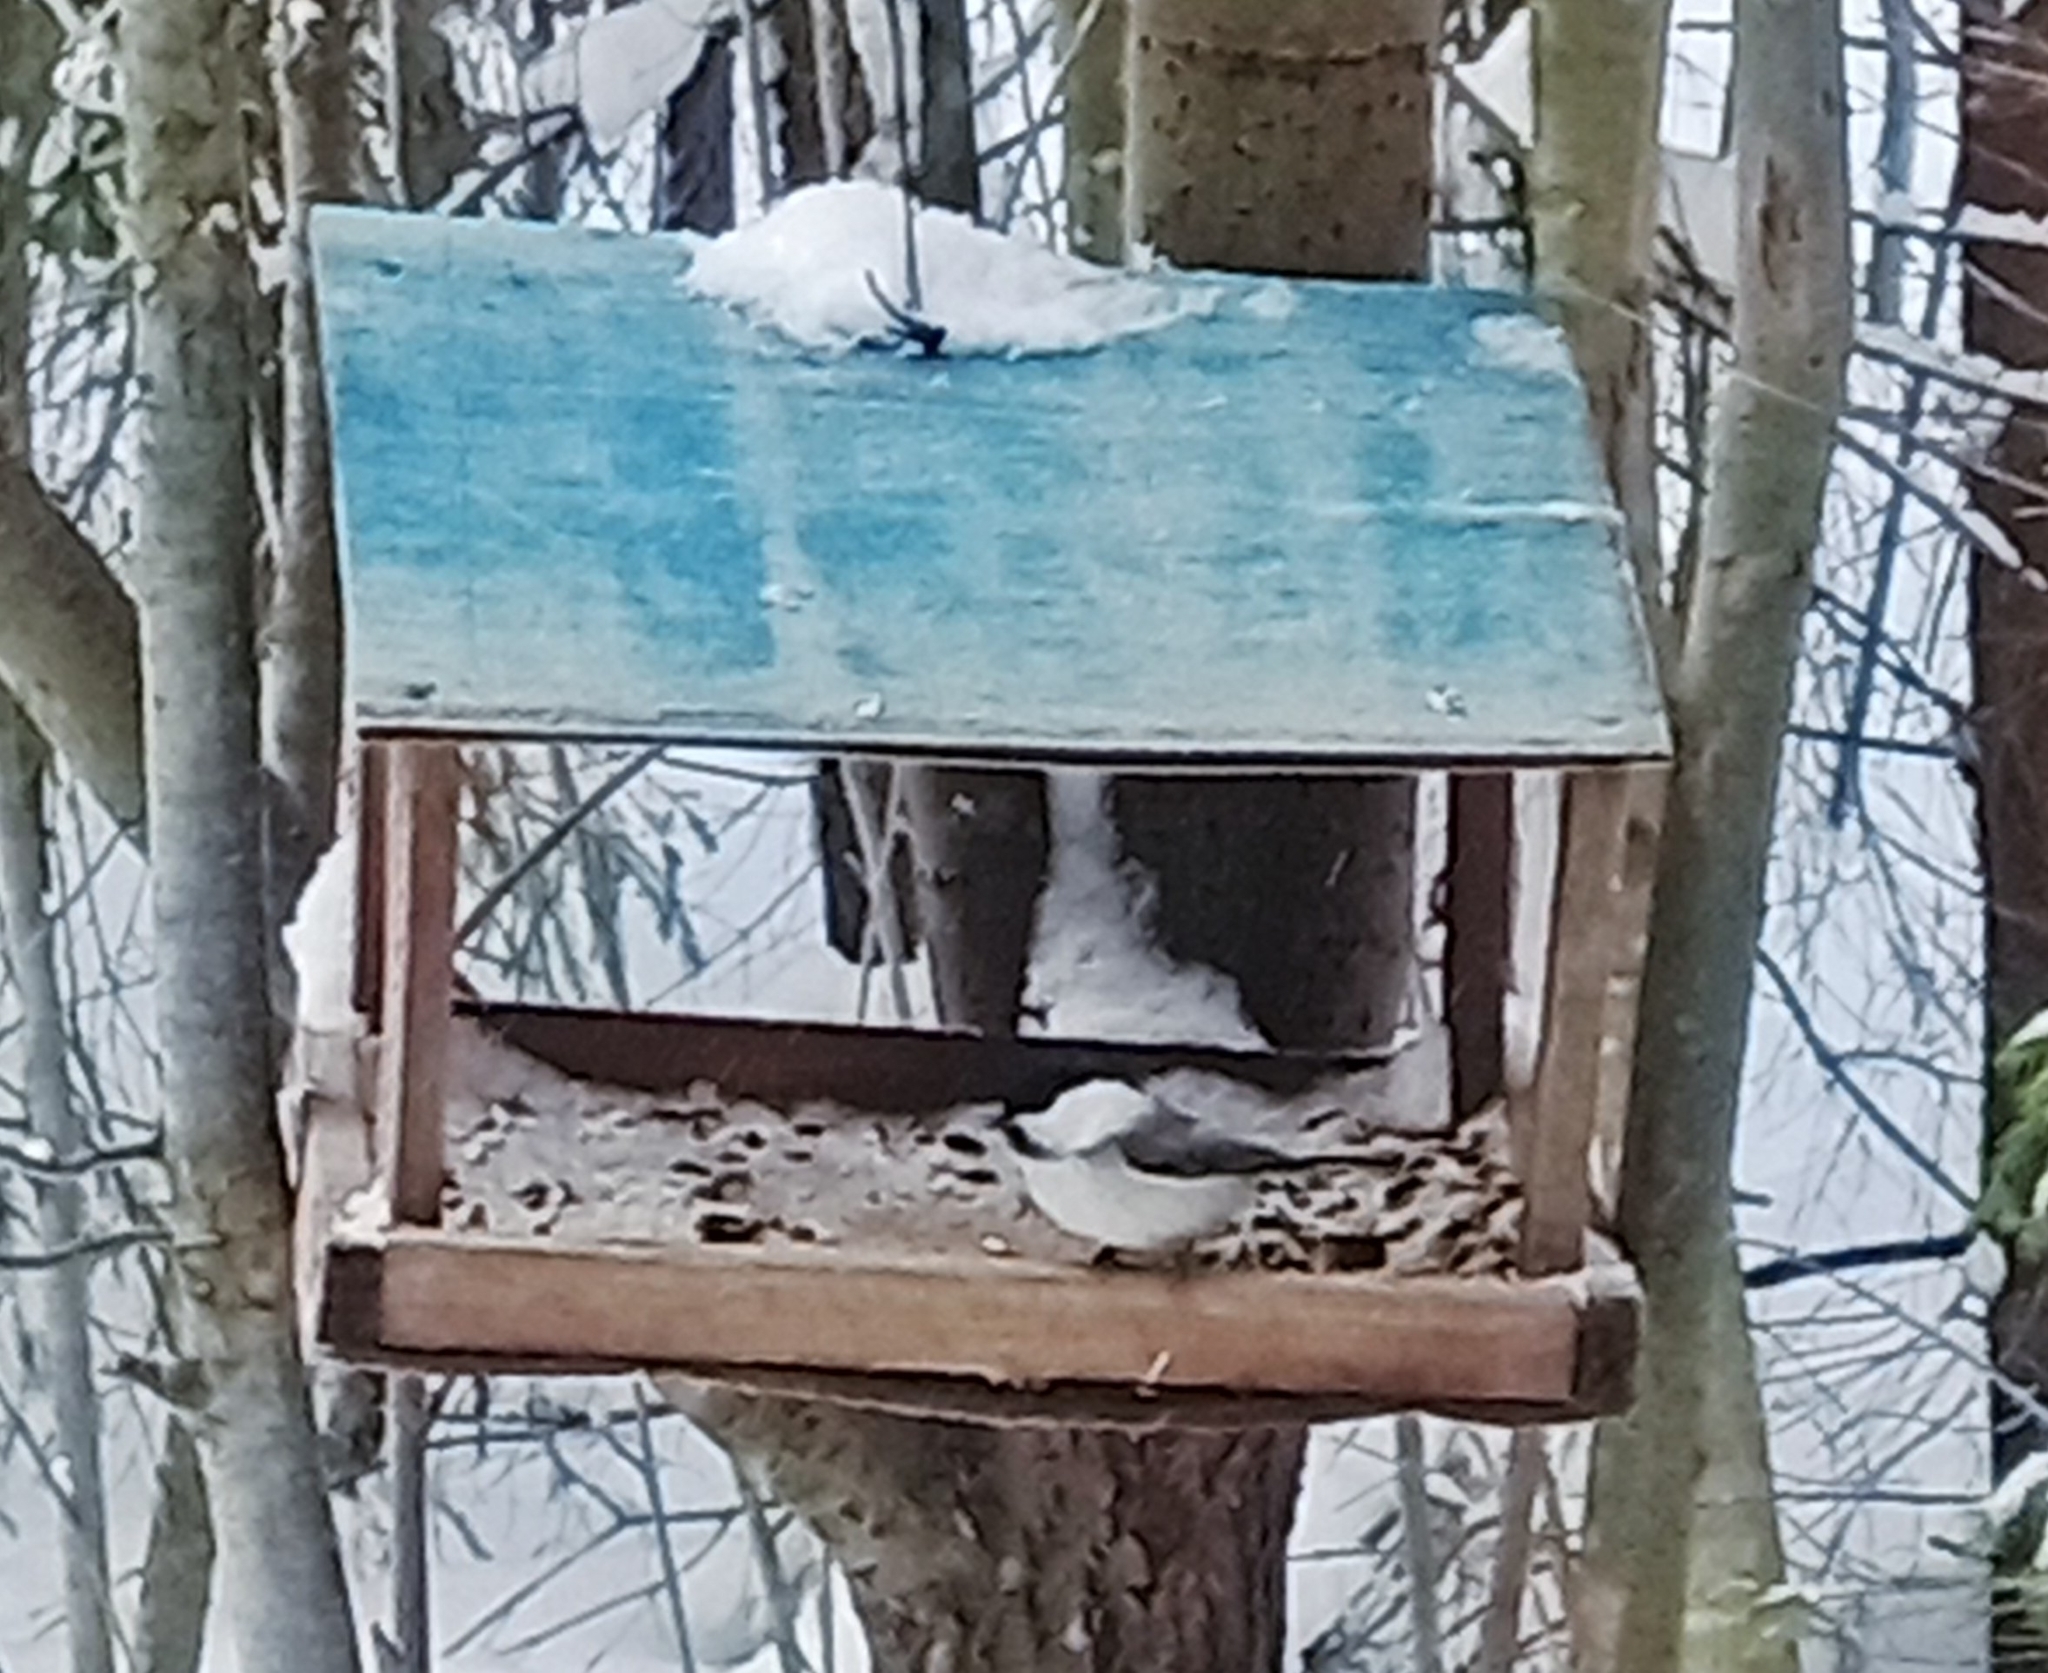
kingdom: Animalia
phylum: Chordata
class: Aves
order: Passeriformes
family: Paridae
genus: Poecile
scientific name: Poecile montanus
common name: Willow tit
